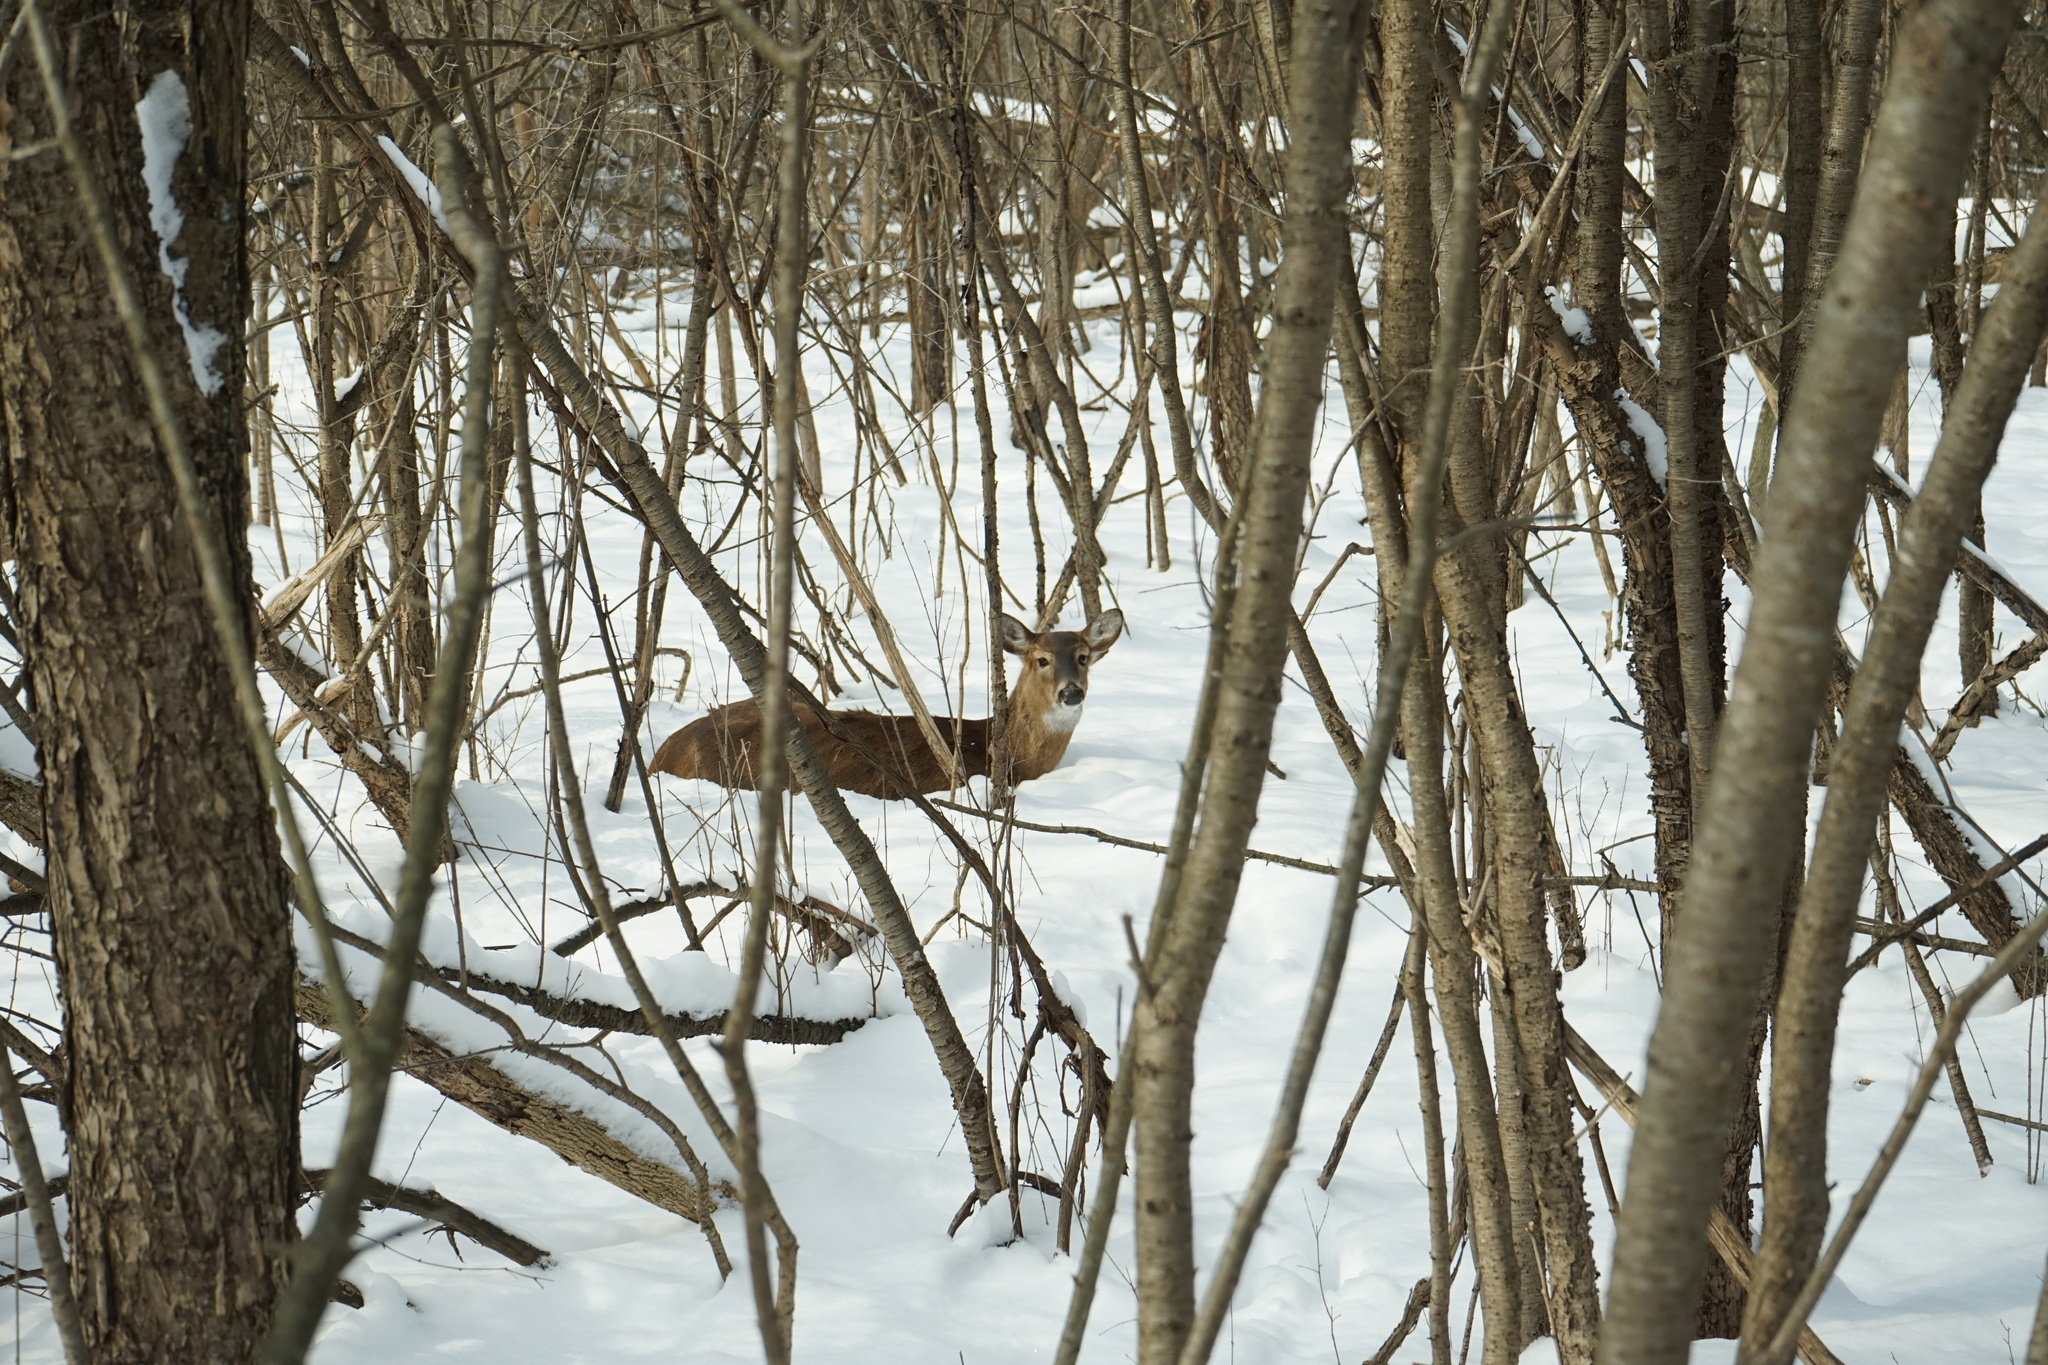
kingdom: Animalia
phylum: Chordata
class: Mammalia
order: Artiodactyla
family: Cervidae
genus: Odocoileus
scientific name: Odocoileus virginianus
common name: White-tailed deer
